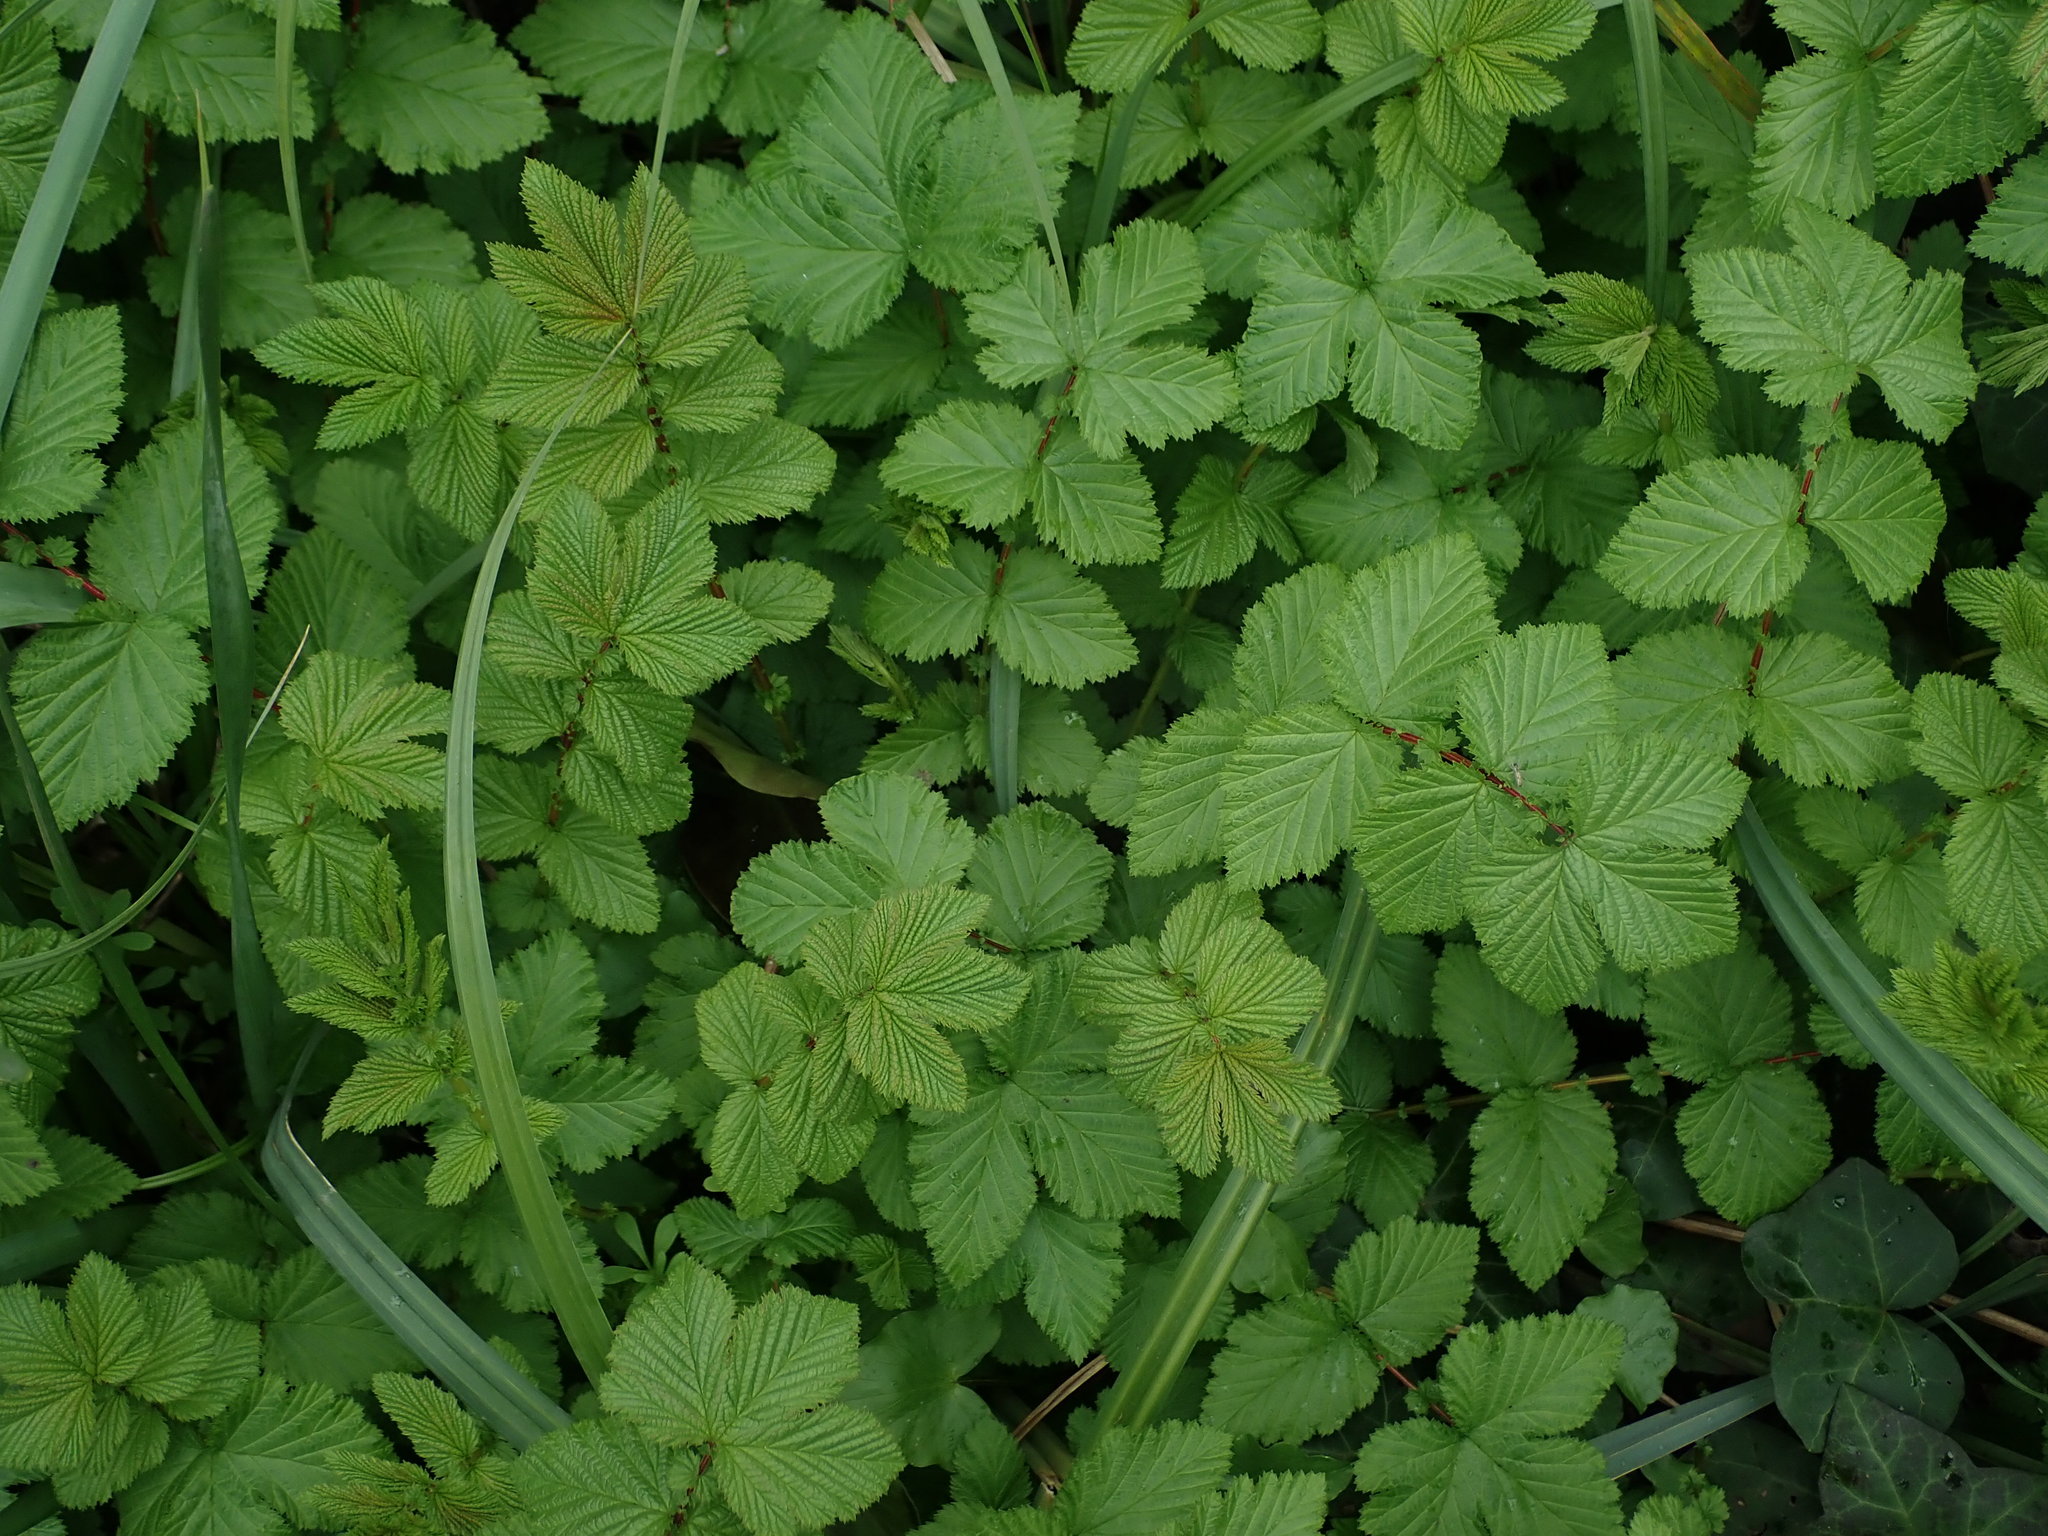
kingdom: Plantae
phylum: Tracheophyta
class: Magnoliopsida
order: Rosales
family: Rosaceae
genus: Filipendula
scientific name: Filipendula ulmaria
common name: Meadowsweet
